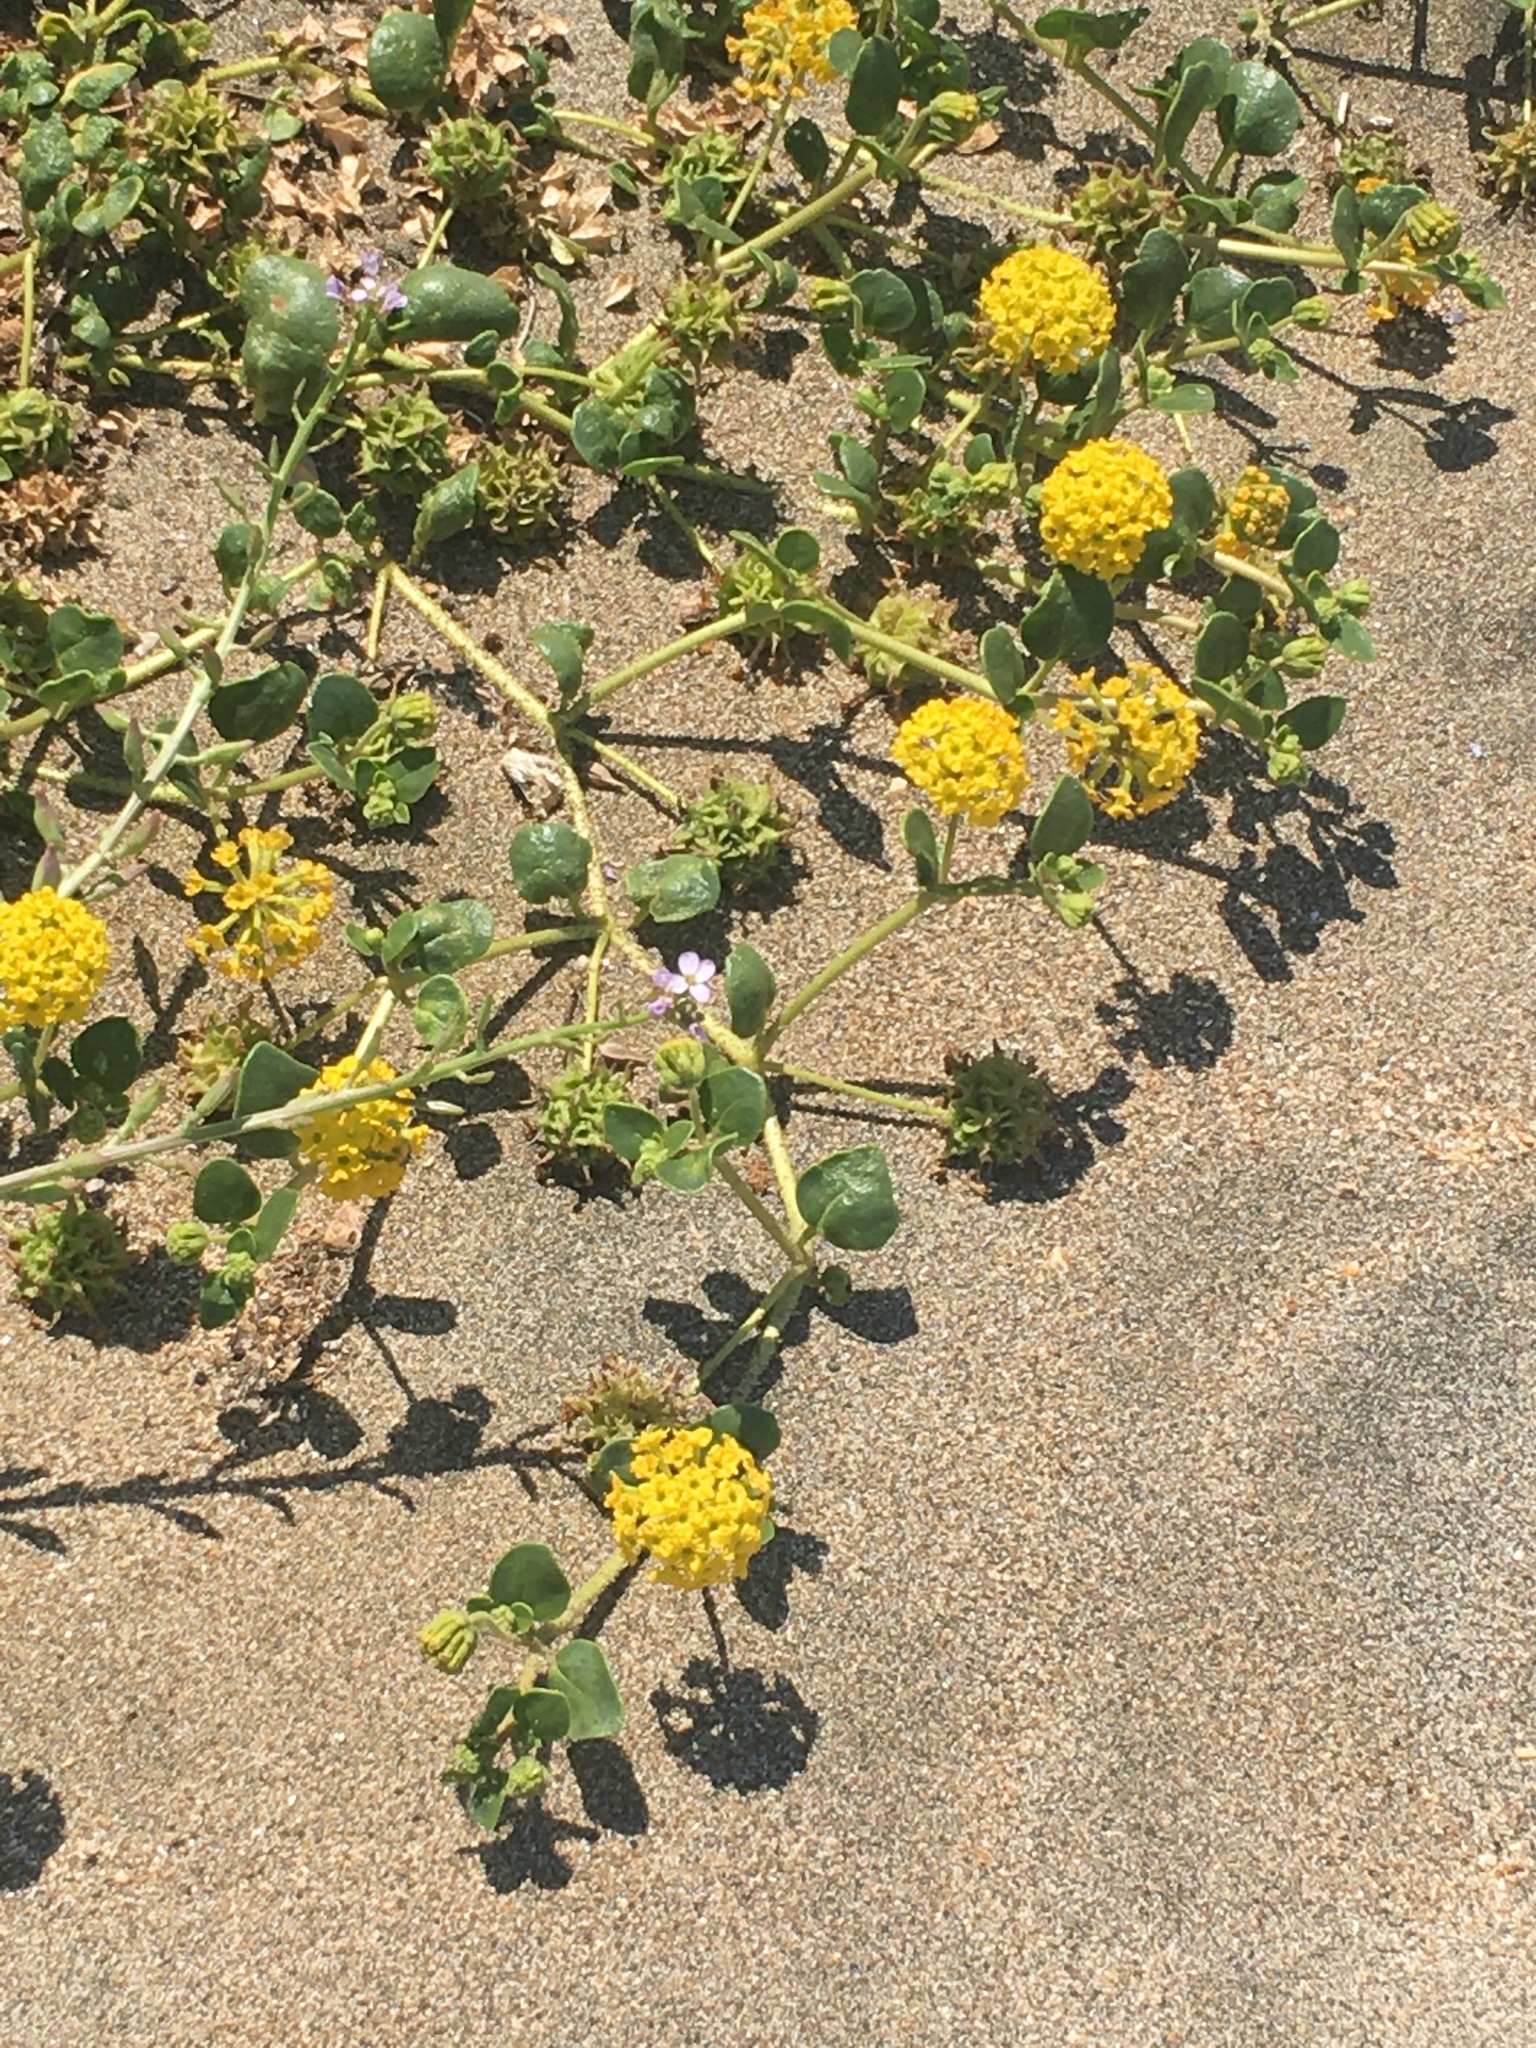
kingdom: Plantae
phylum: Tracheophyta
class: Magnoliopsida
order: Caryophyllales
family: Nyctaginaceae
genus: Abronia
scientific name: Abronia latifolia
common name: Yellow sand-verbena
